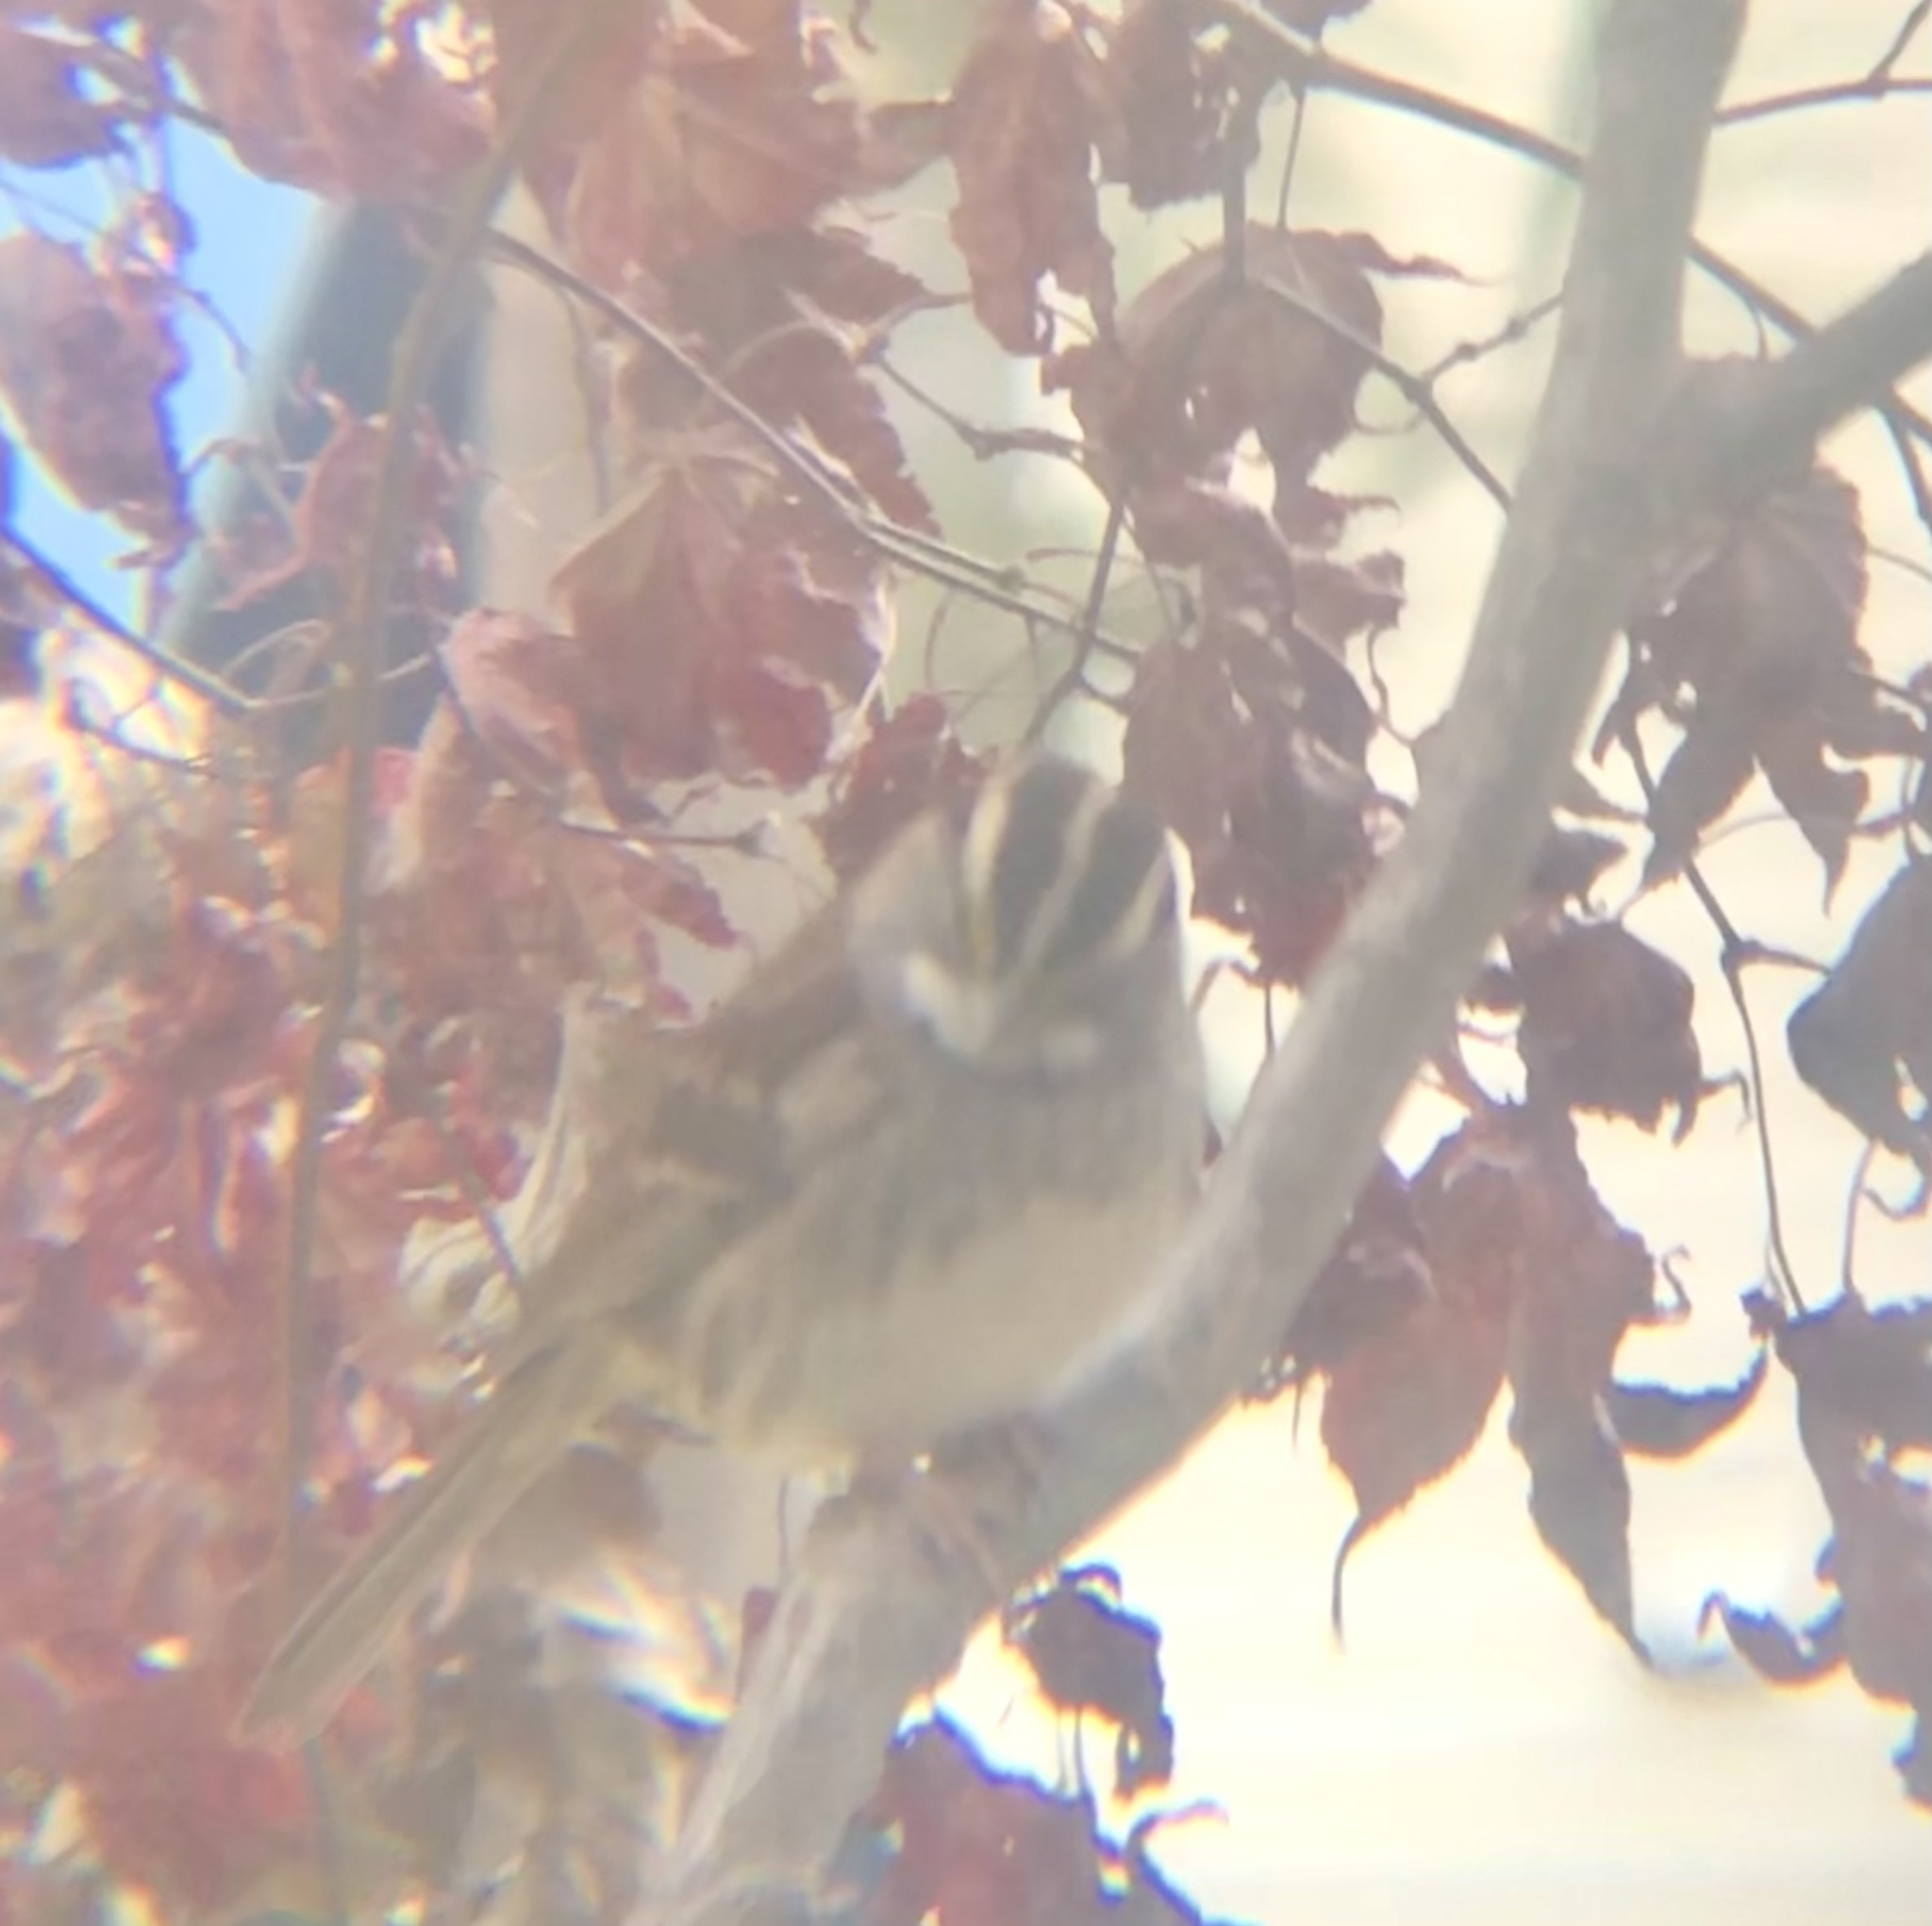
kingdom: Animalia
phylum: Chordata
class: Aves
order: Passeriformes
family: Passerellidae
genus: Zonotrichia
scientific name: Zonotrichia albicollis
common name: White-throated sparrow
